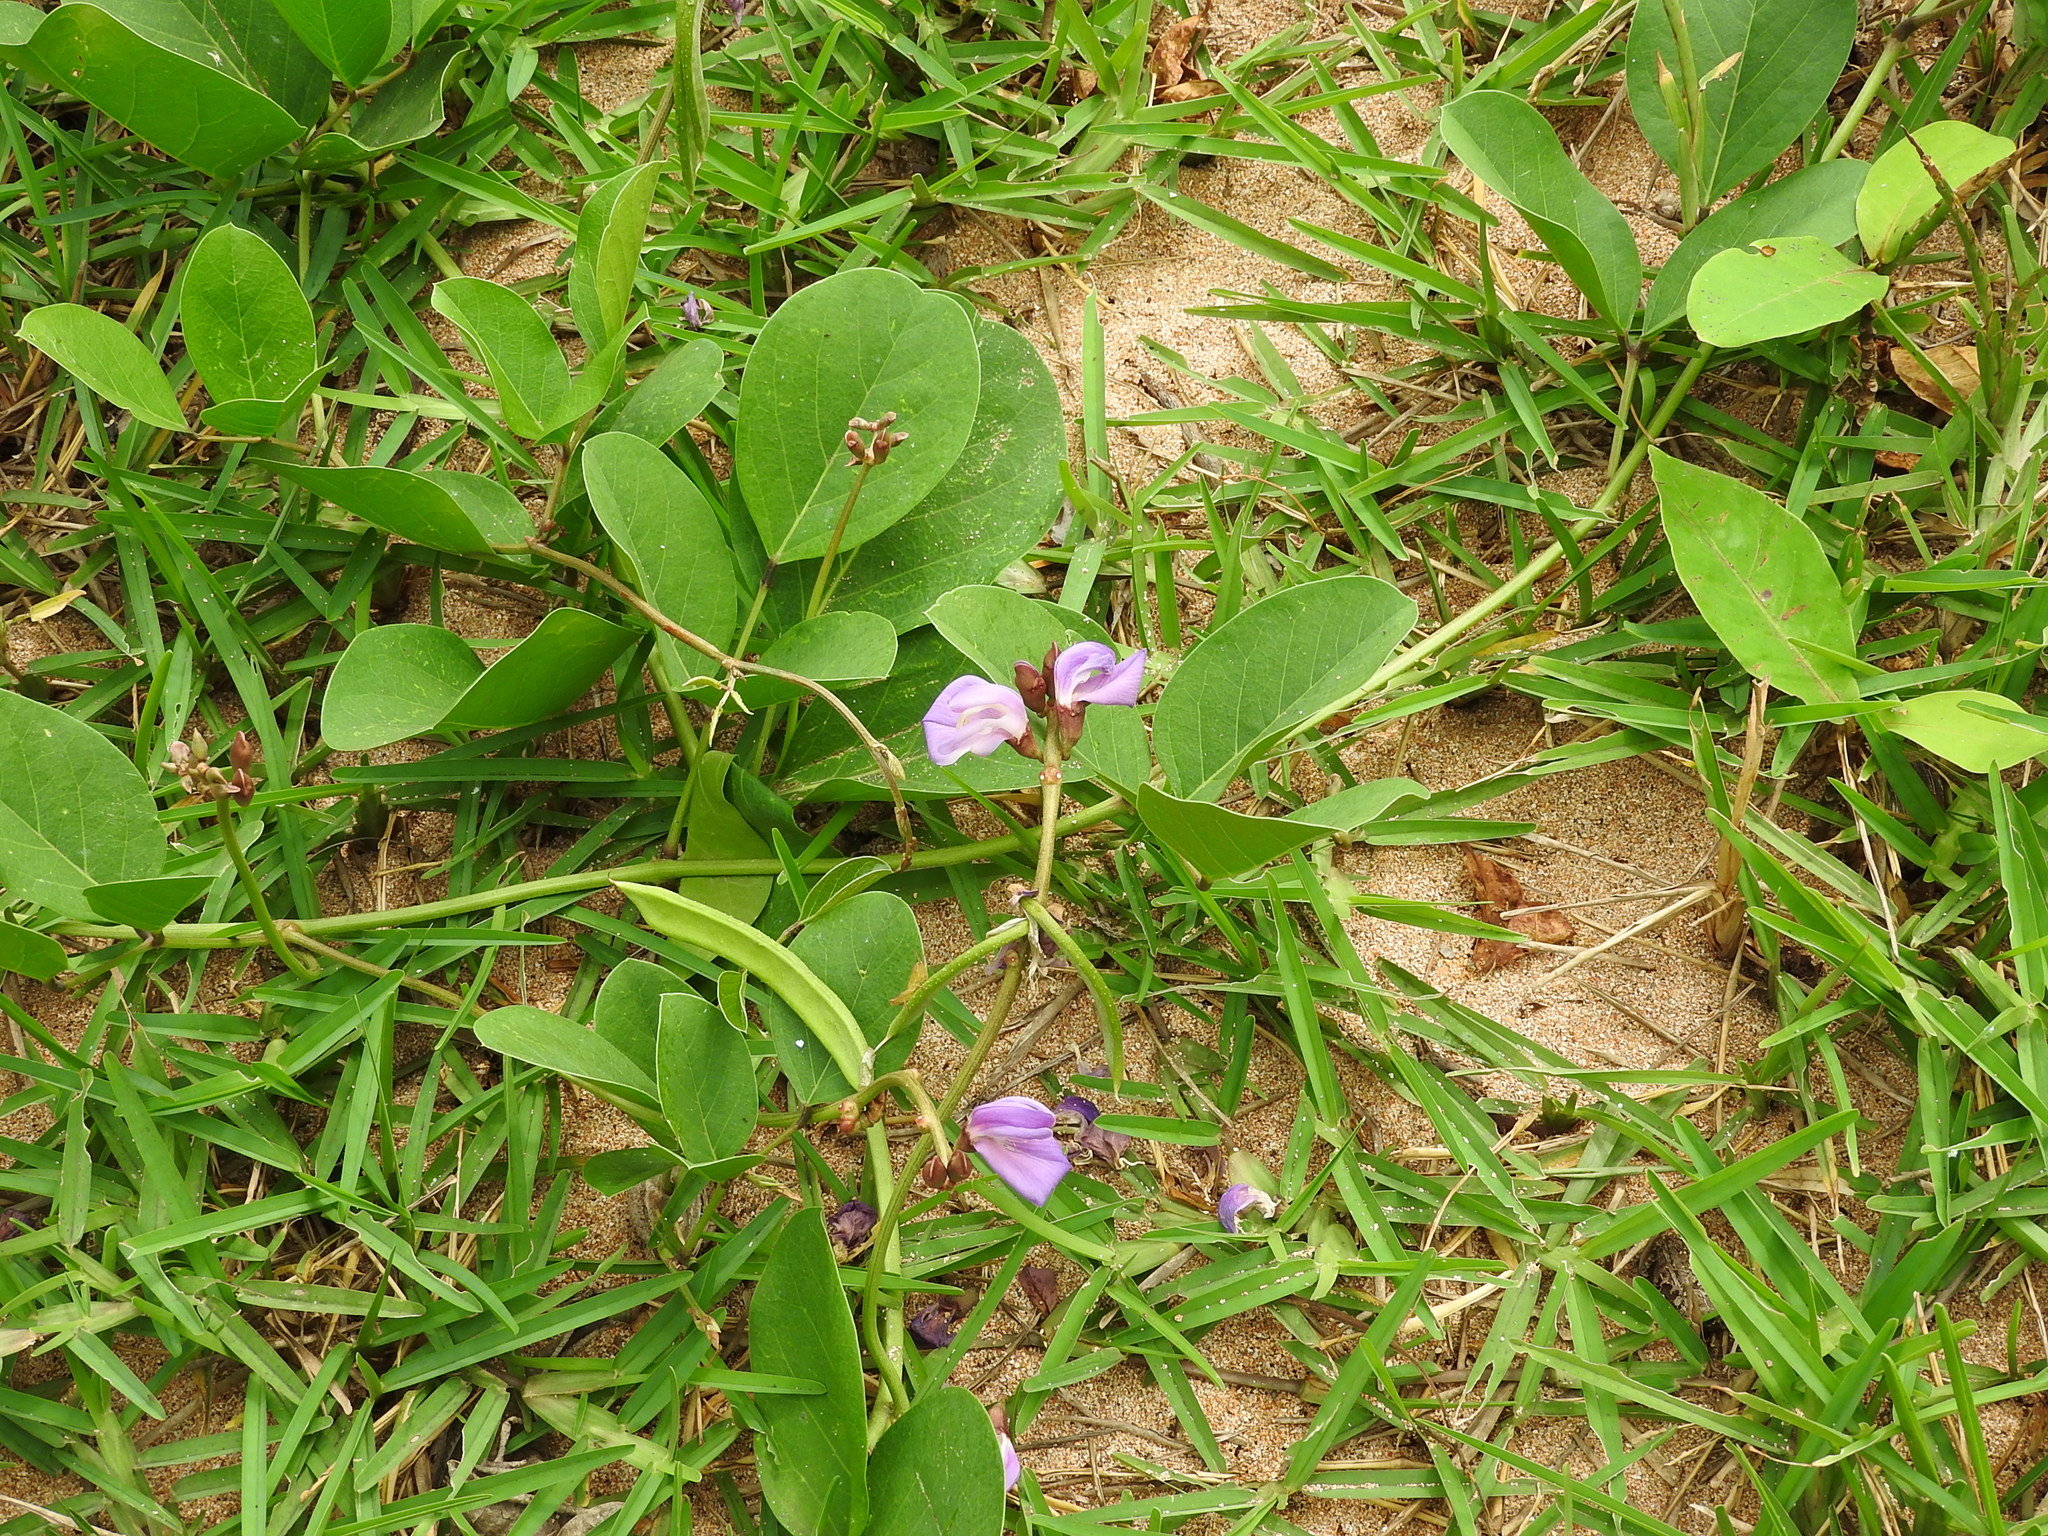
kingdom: Plantae
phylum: Tracheophyta
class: Magnoliopsida
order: Fabales
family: Fabaceae
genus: Canavalia
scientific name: Canavalia rosea
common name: Beach-bean
